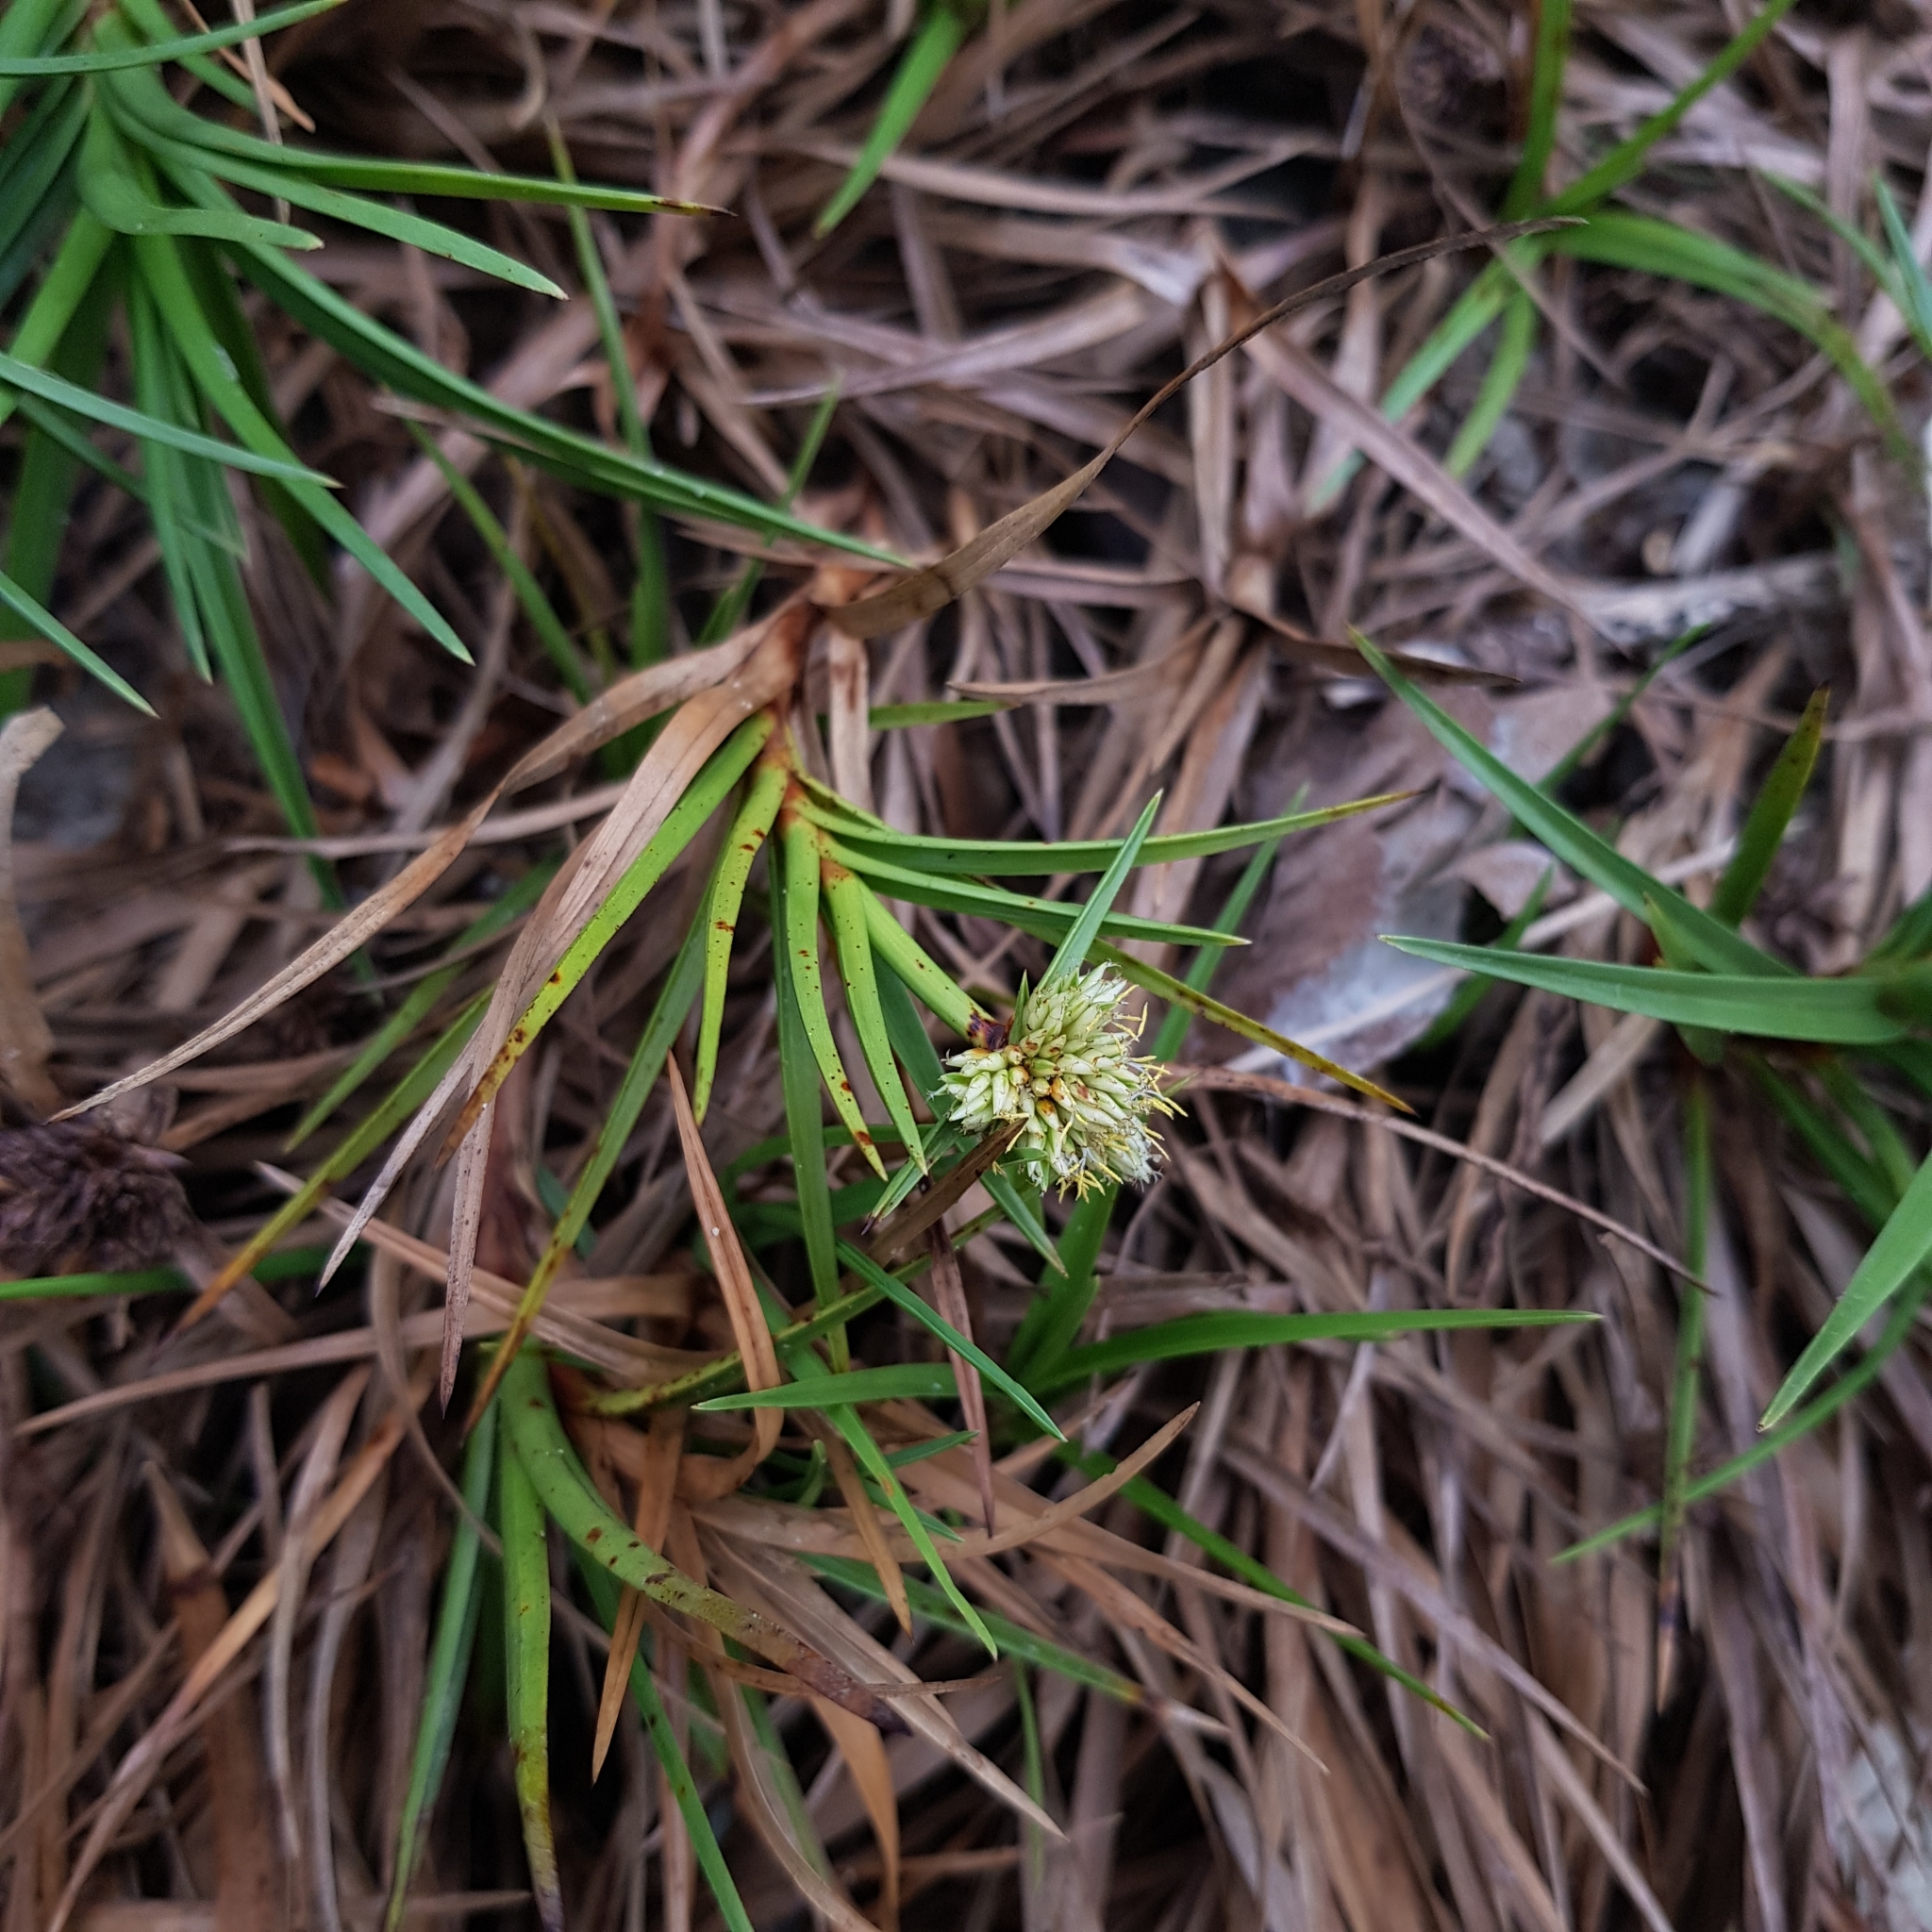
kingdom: Plantae
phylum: Tracheophyta
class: Liliopsida
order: Poales
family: Cyperaceae
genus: Cyperus
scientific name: Cyperus pedunculatus
